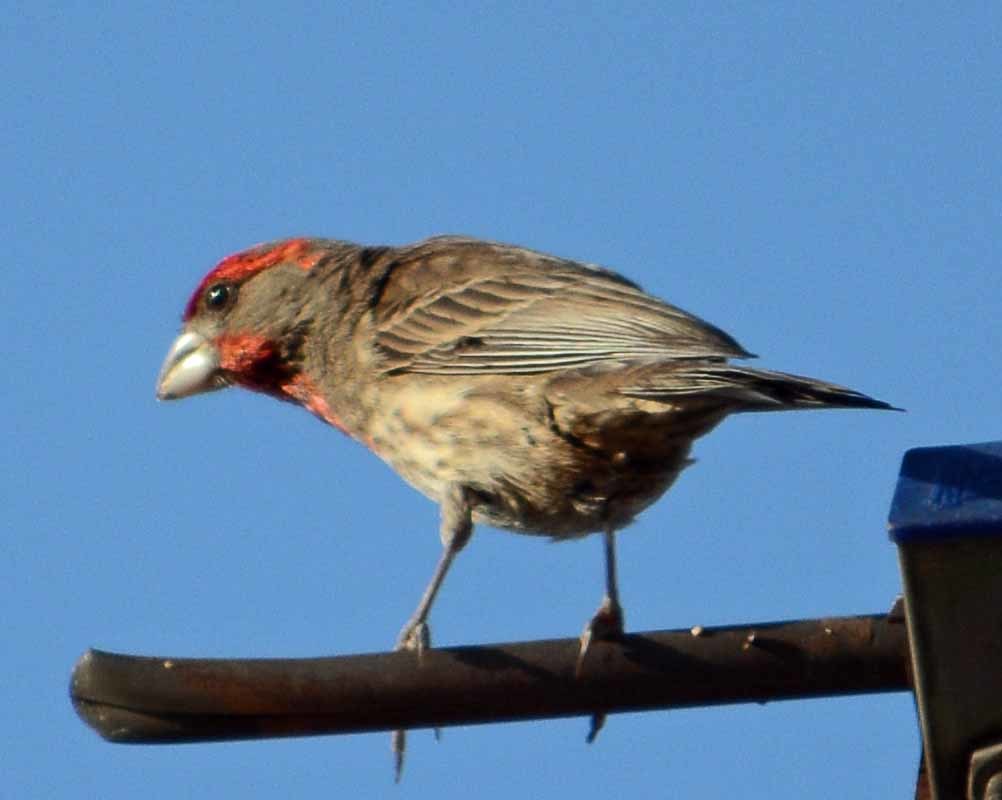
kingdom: Animalia
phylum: Chordata
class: Aves
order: Passeriformes
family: Fringillidae
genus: Haemorhous
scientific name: Haemorhous mexicanus
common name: House finch
